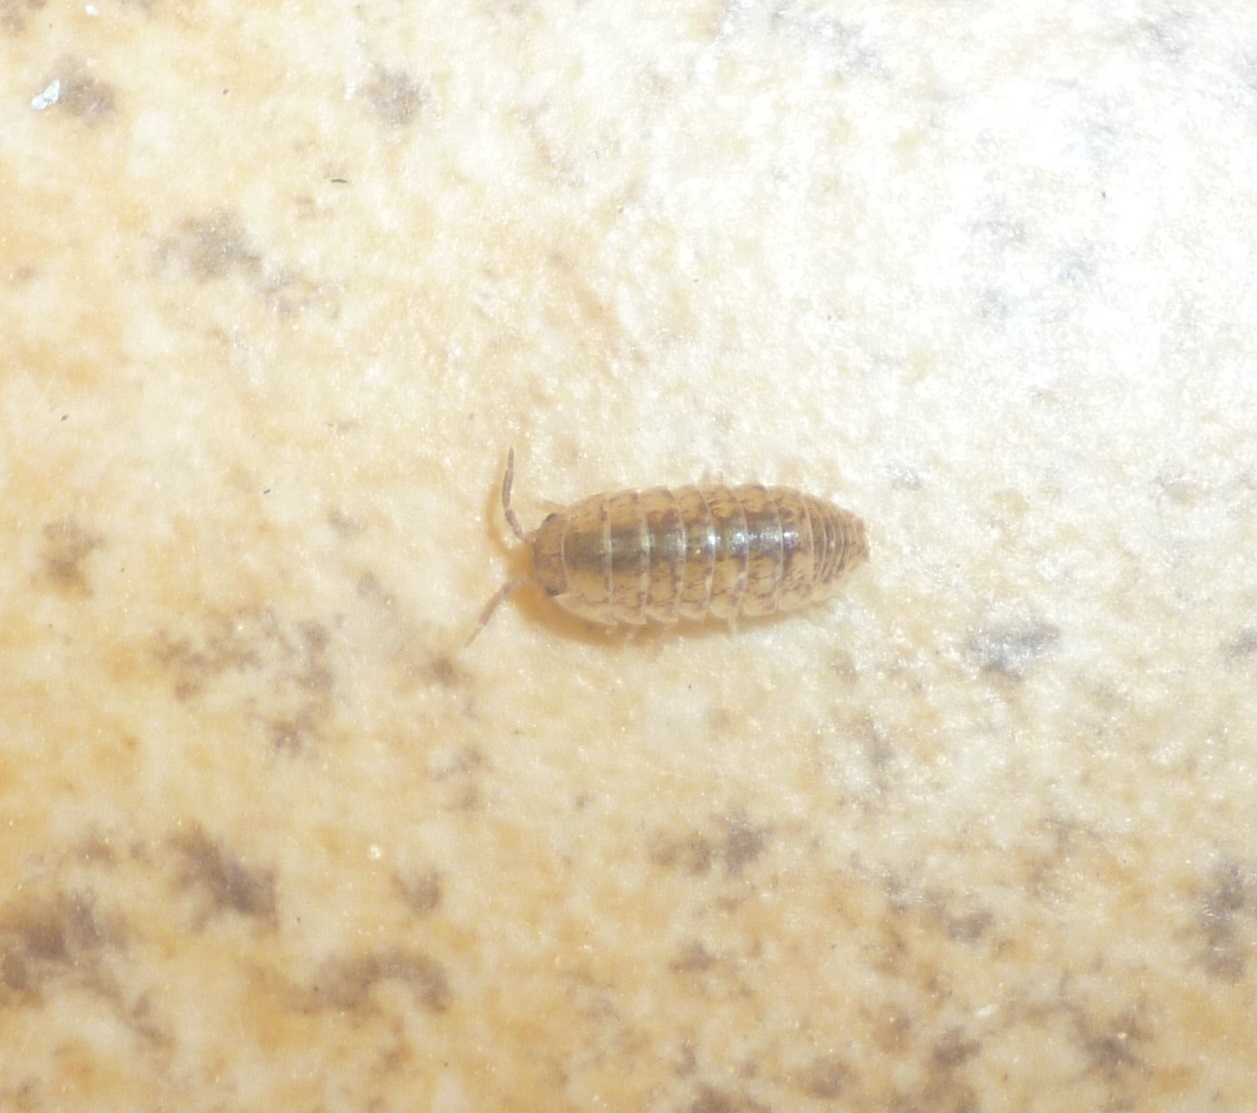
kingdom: Animalia
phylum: Arthropoda
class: Malacostraca
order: Isopoda
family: Armadillidiidae
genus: Armadillidium
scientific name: Armadillidium marmoratum
